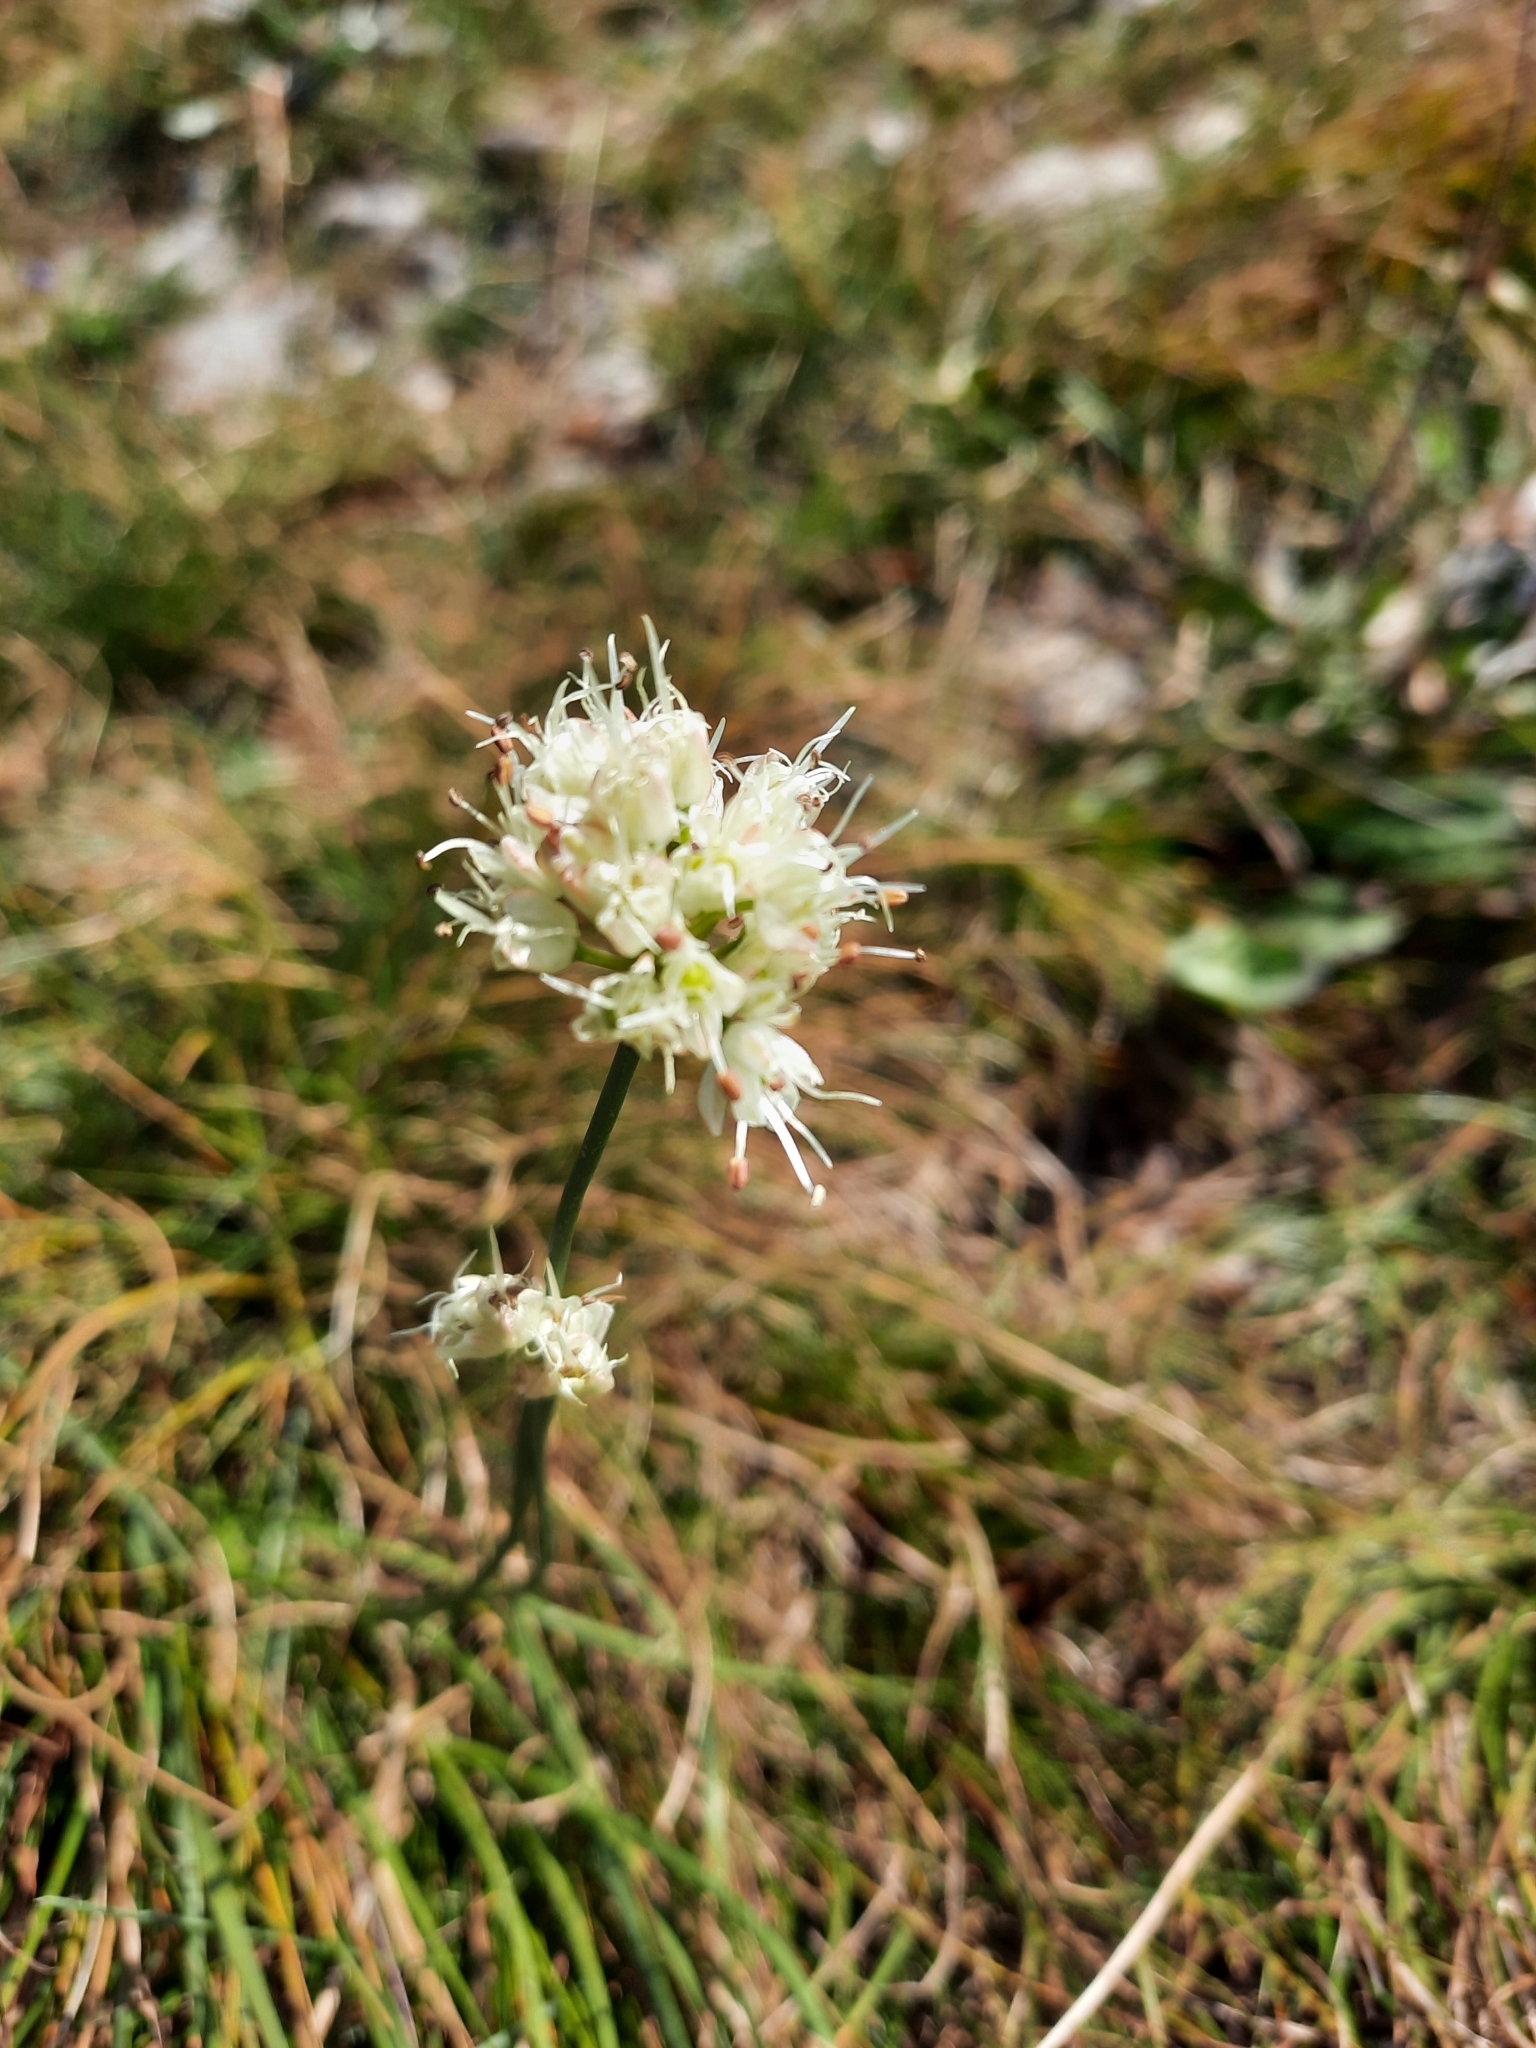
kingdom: Plantae
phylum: Tracheophyta
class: Liliopsida
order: Asparagales
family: Amaryllidaceae
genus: Allium
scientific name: Allium ericetorum
